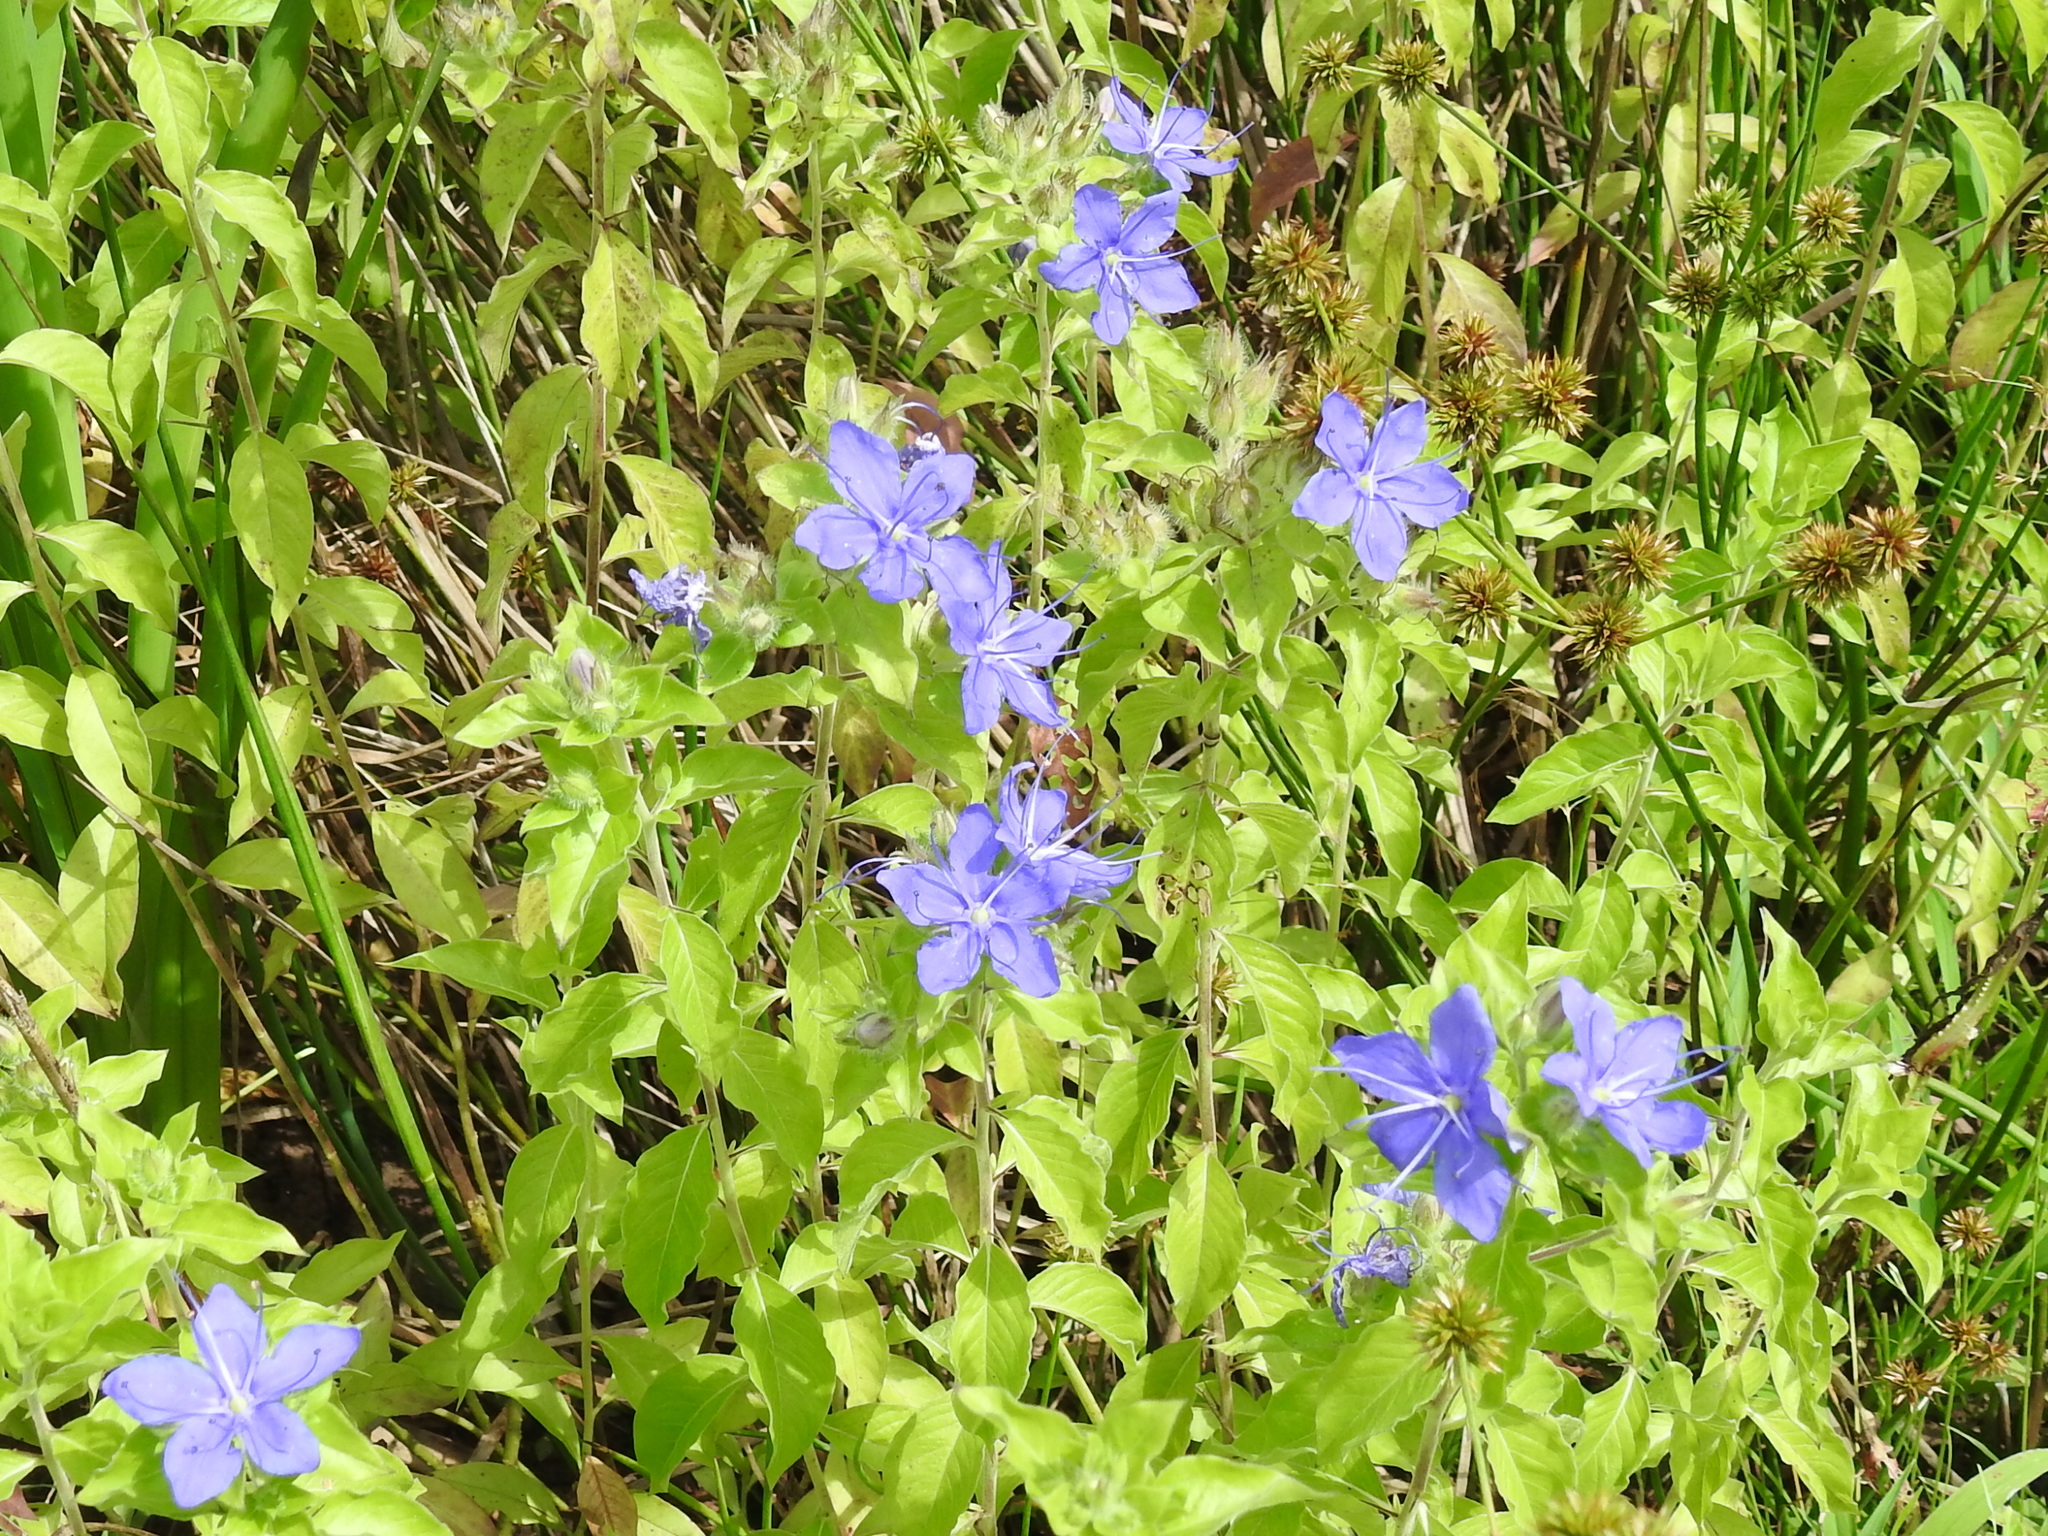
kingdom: Plantae
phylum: Tracheophyta
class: Magnoliopsida
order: Solanales
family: Hydroleaceae
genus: Hydrolea
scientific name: Hydrolea ovata
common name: Ovate false fiddleleaf
